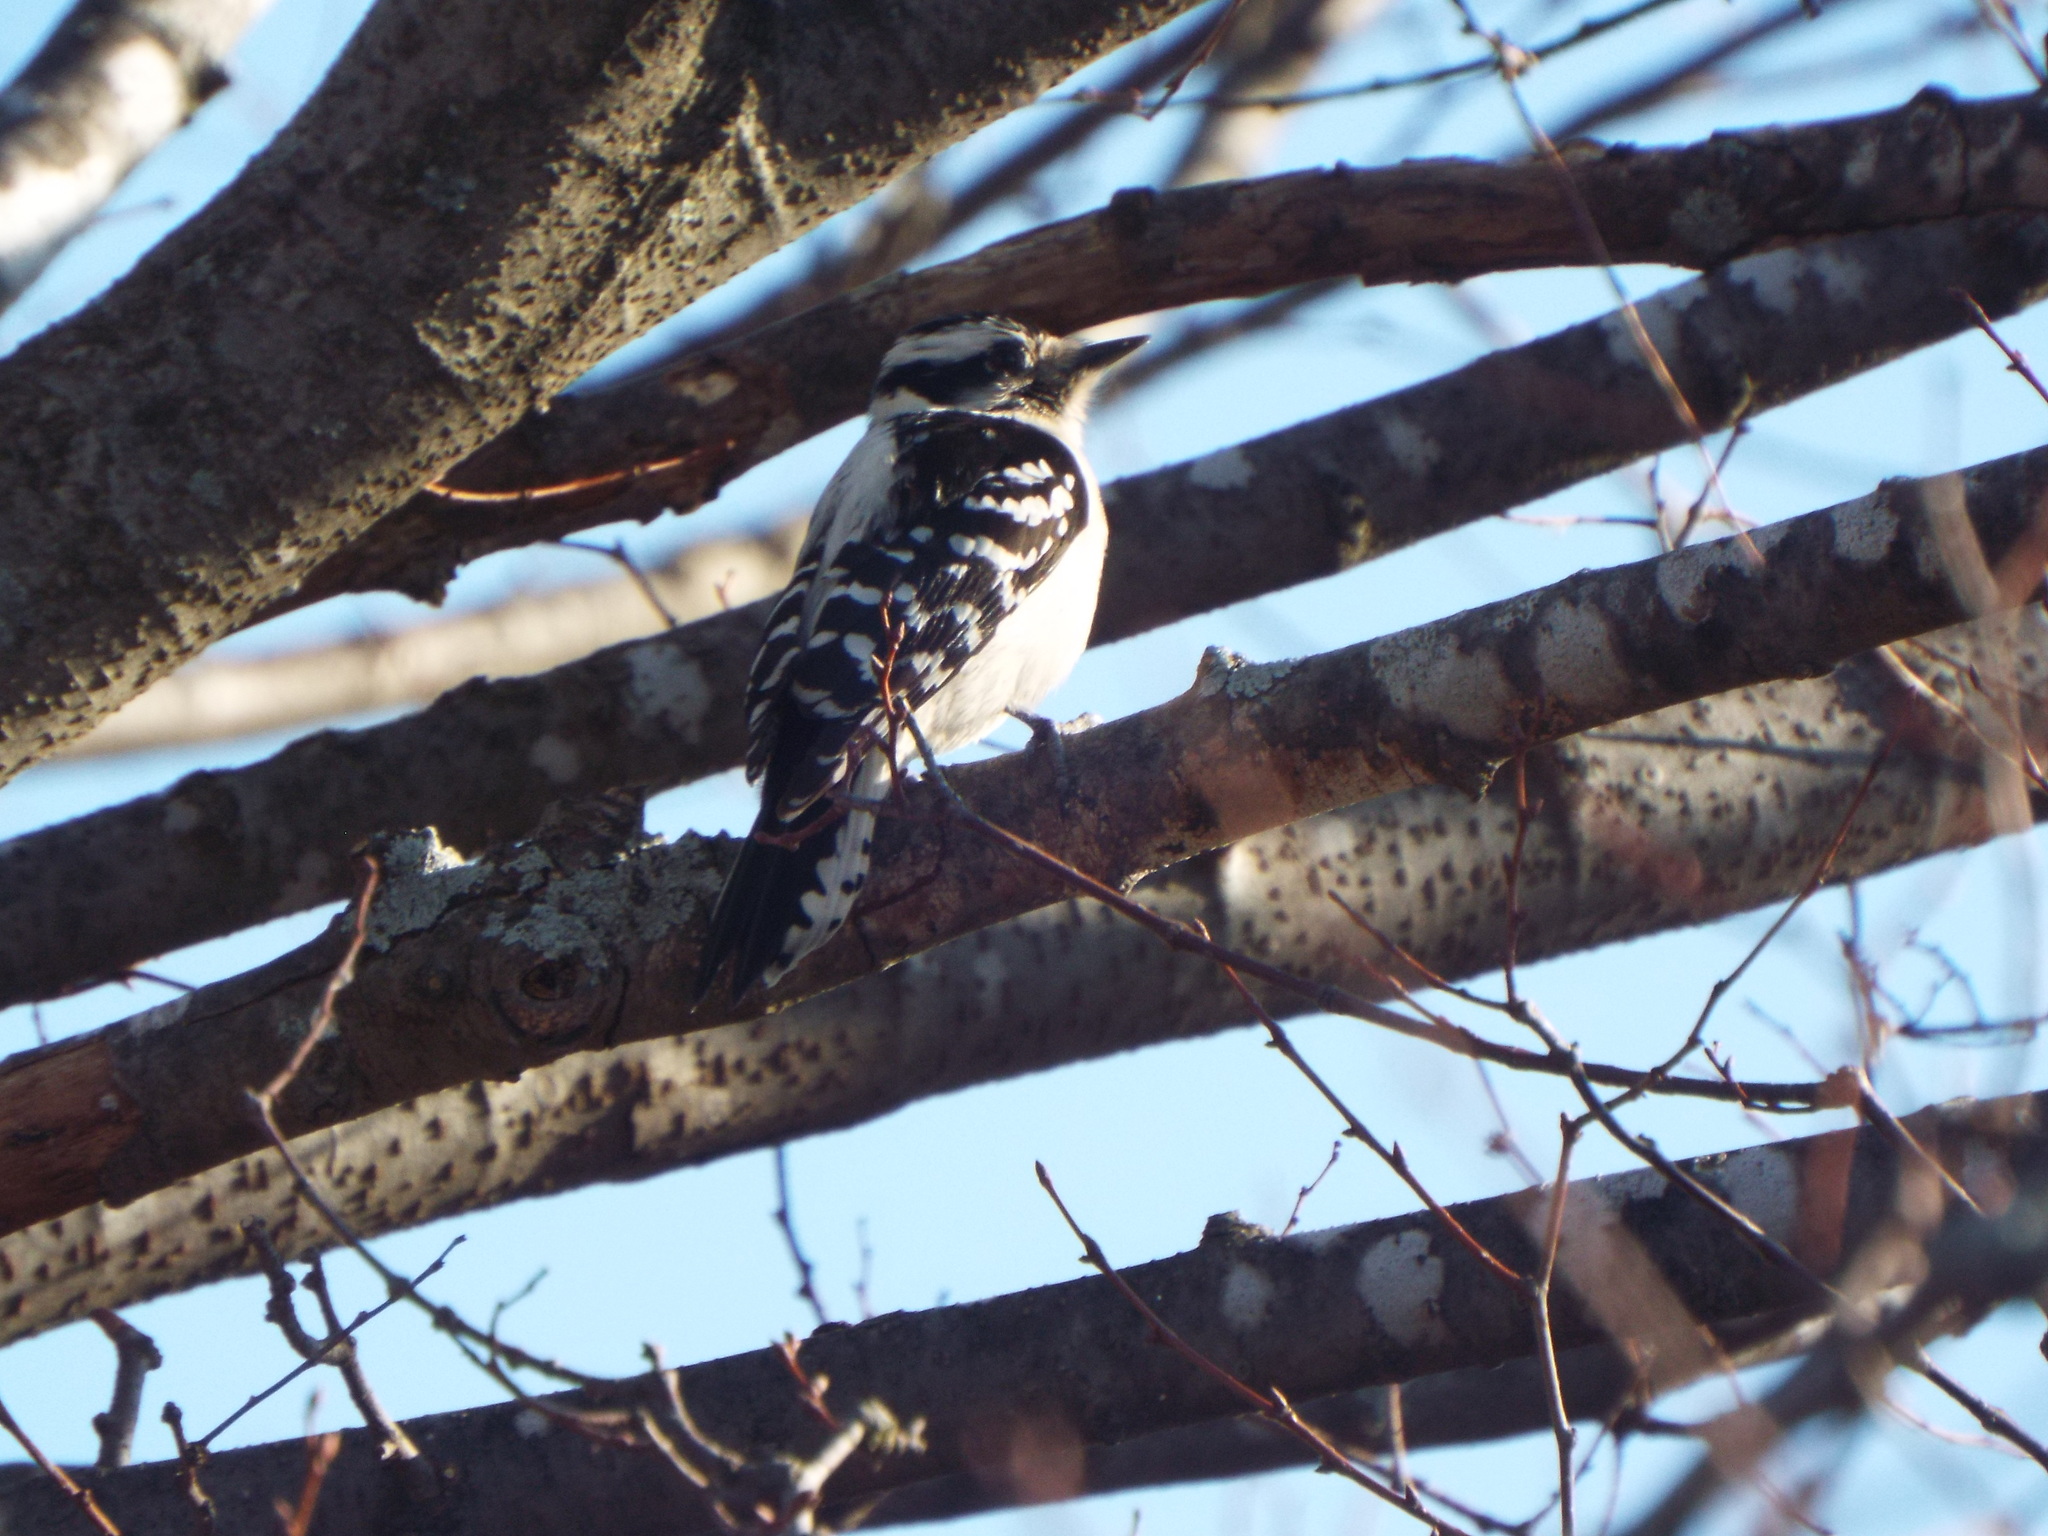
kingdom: Animalia
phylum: Chordata
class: Aves
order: Piciformes
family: Picidae
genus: Dryobates
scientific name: Dryobates pubescens
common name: Downy woodpecker
